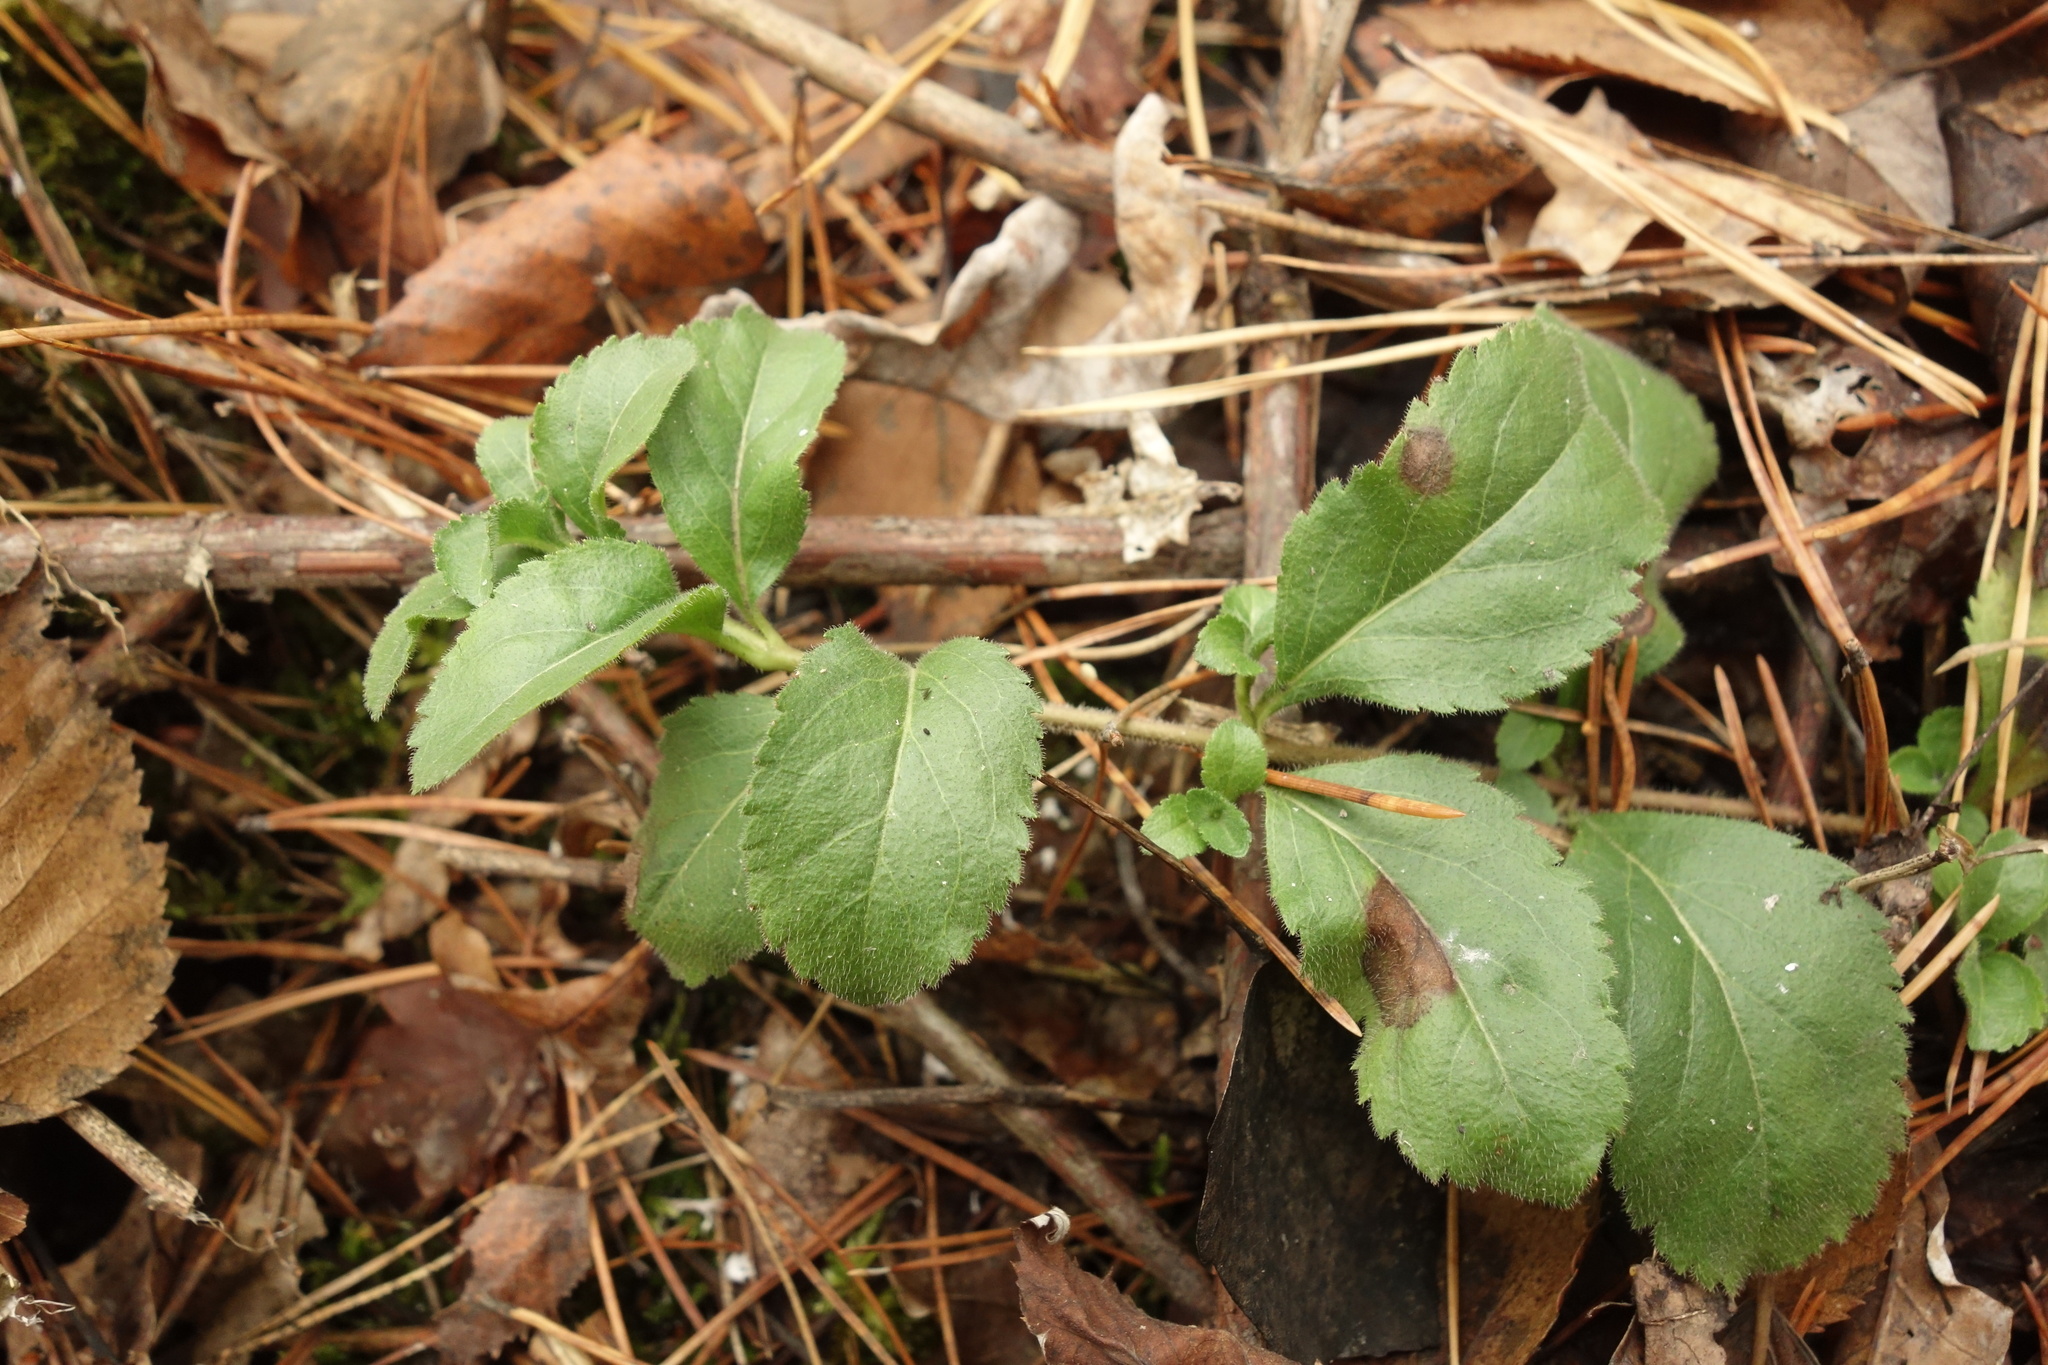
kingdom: Plantae
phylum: Tracheophyta
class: Magnoliopsida
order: Lamiales
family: Plantaginaceae
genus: Veronica
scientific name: Veronica officinalis
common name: Common speedwell
